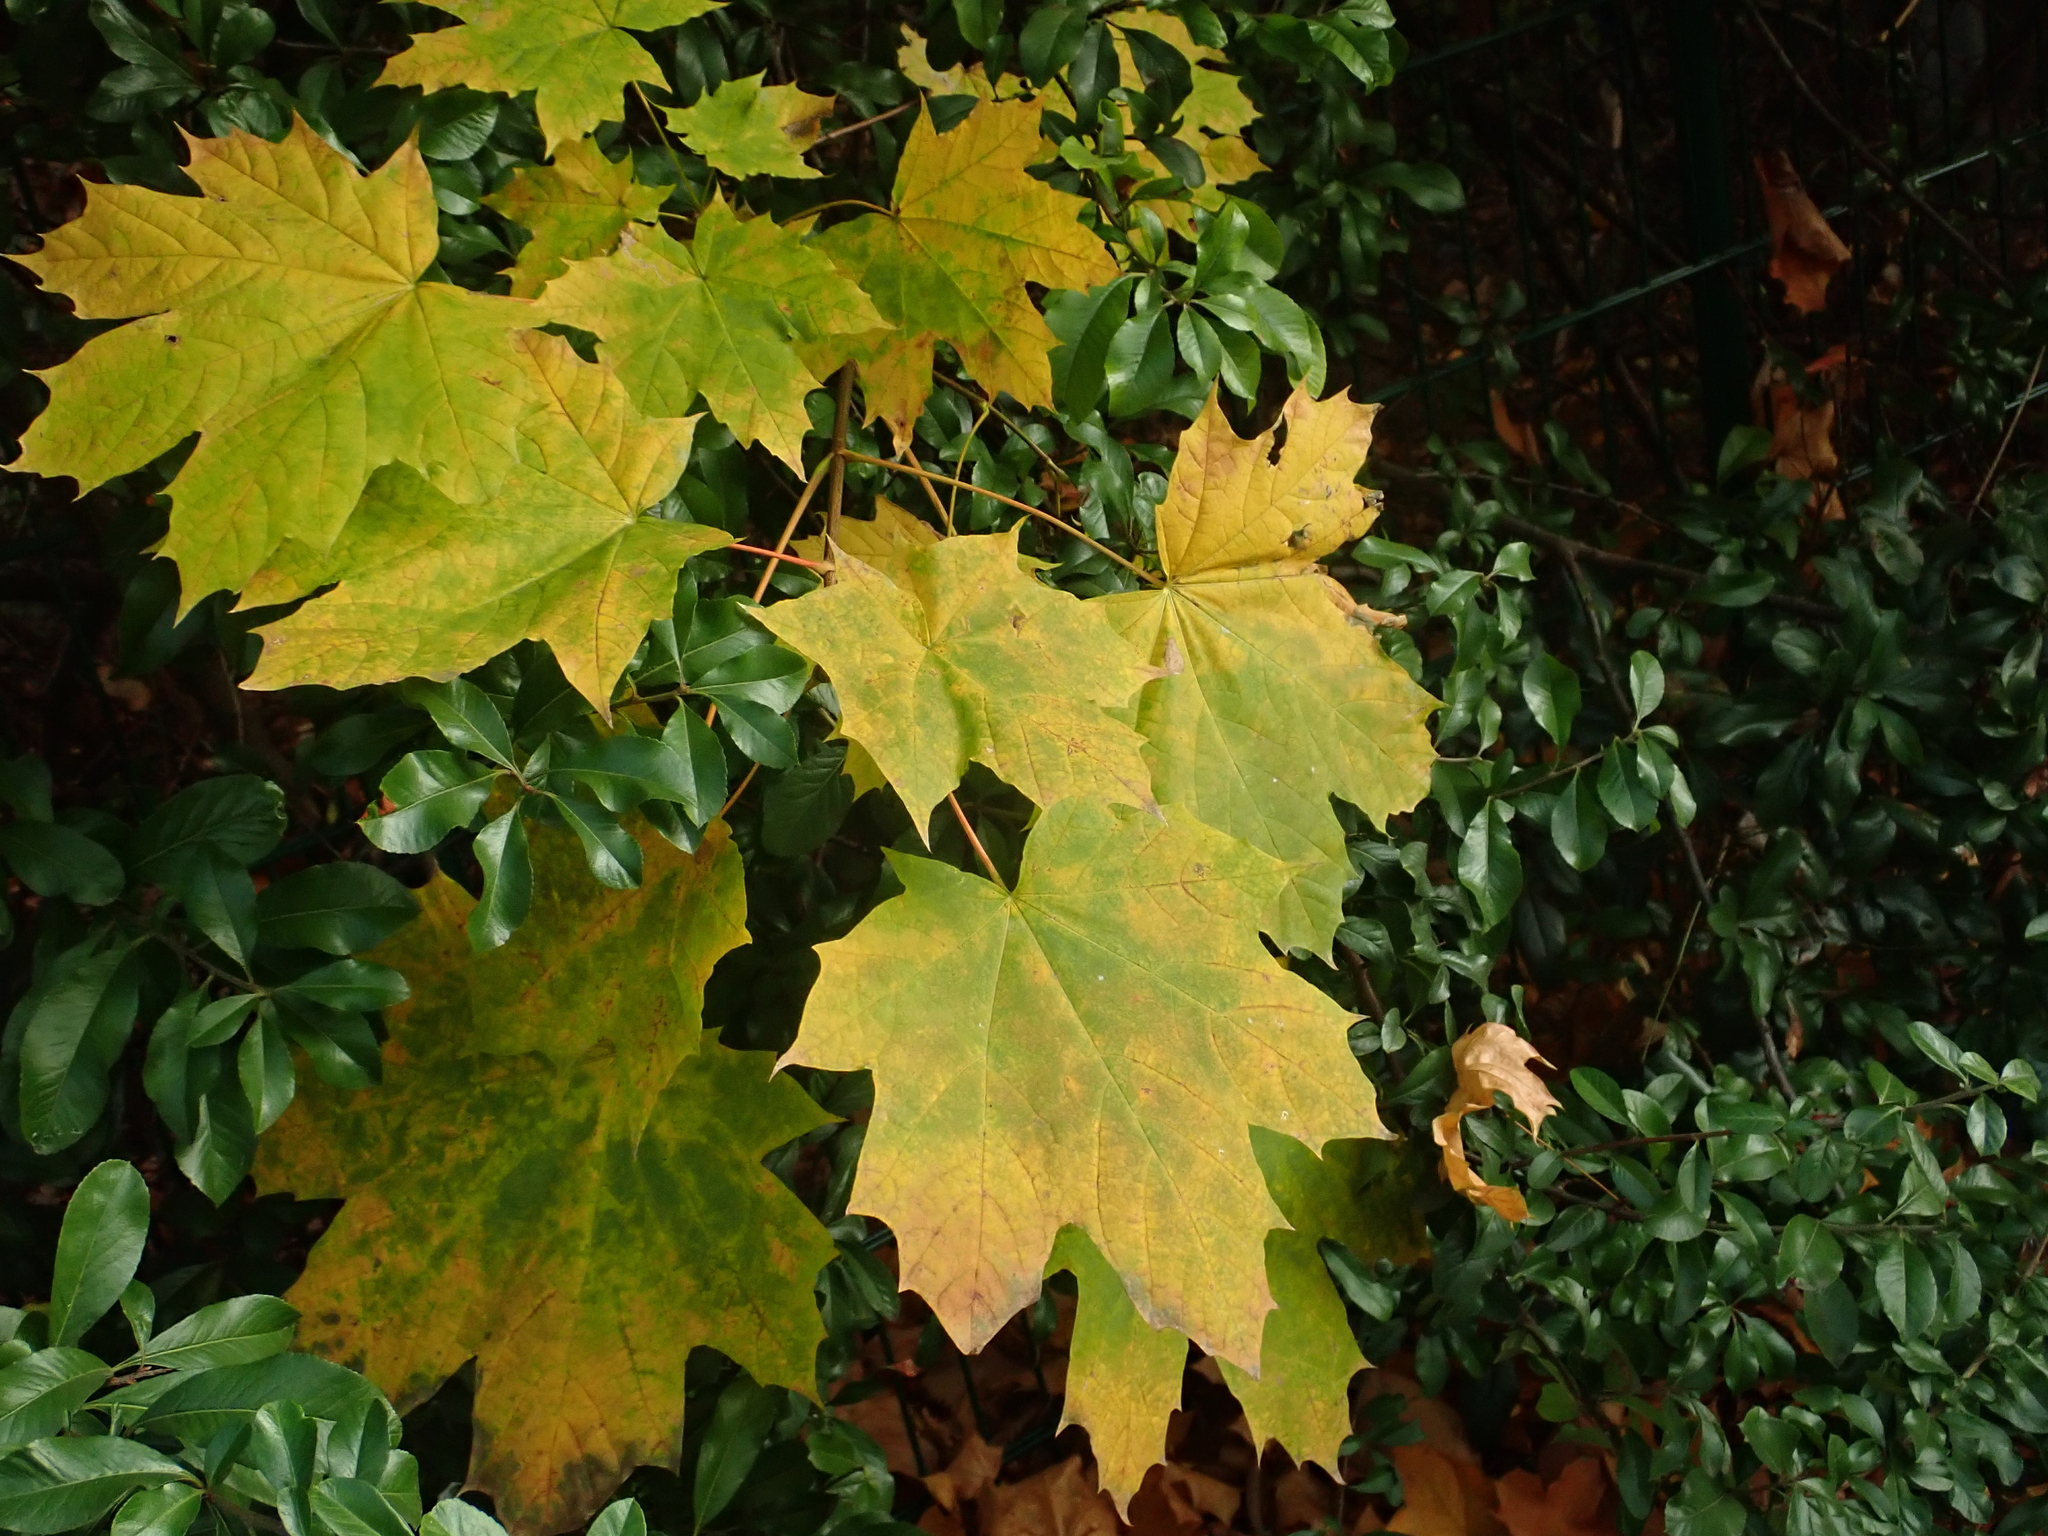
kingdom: Plantae
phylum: Tracheophyta
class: Magnoliopsida
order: Sapindales
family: Sapindaceae
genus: Acer
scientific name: Acer platanoides
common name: Norway maple
